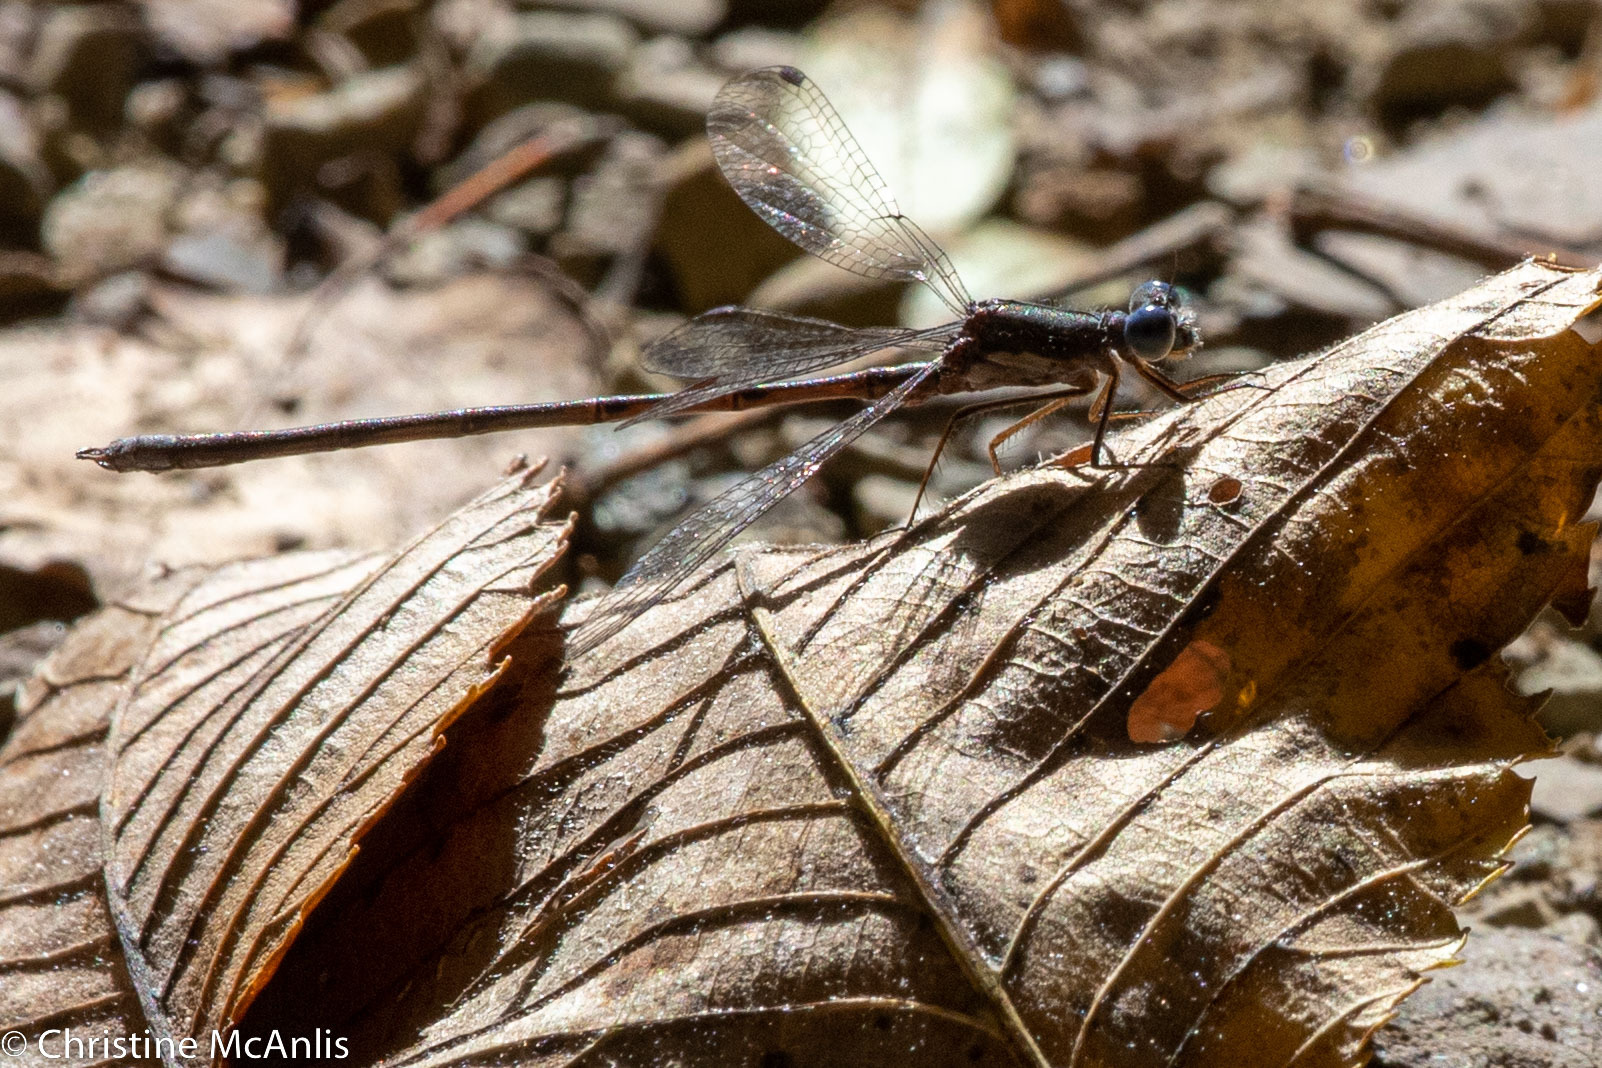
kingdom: Animalia
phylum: Arthropoda
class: Insecta
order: Odonata
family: Lestidae
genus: Lestes
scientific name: Lestes congener
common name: Spotted spreadwing
